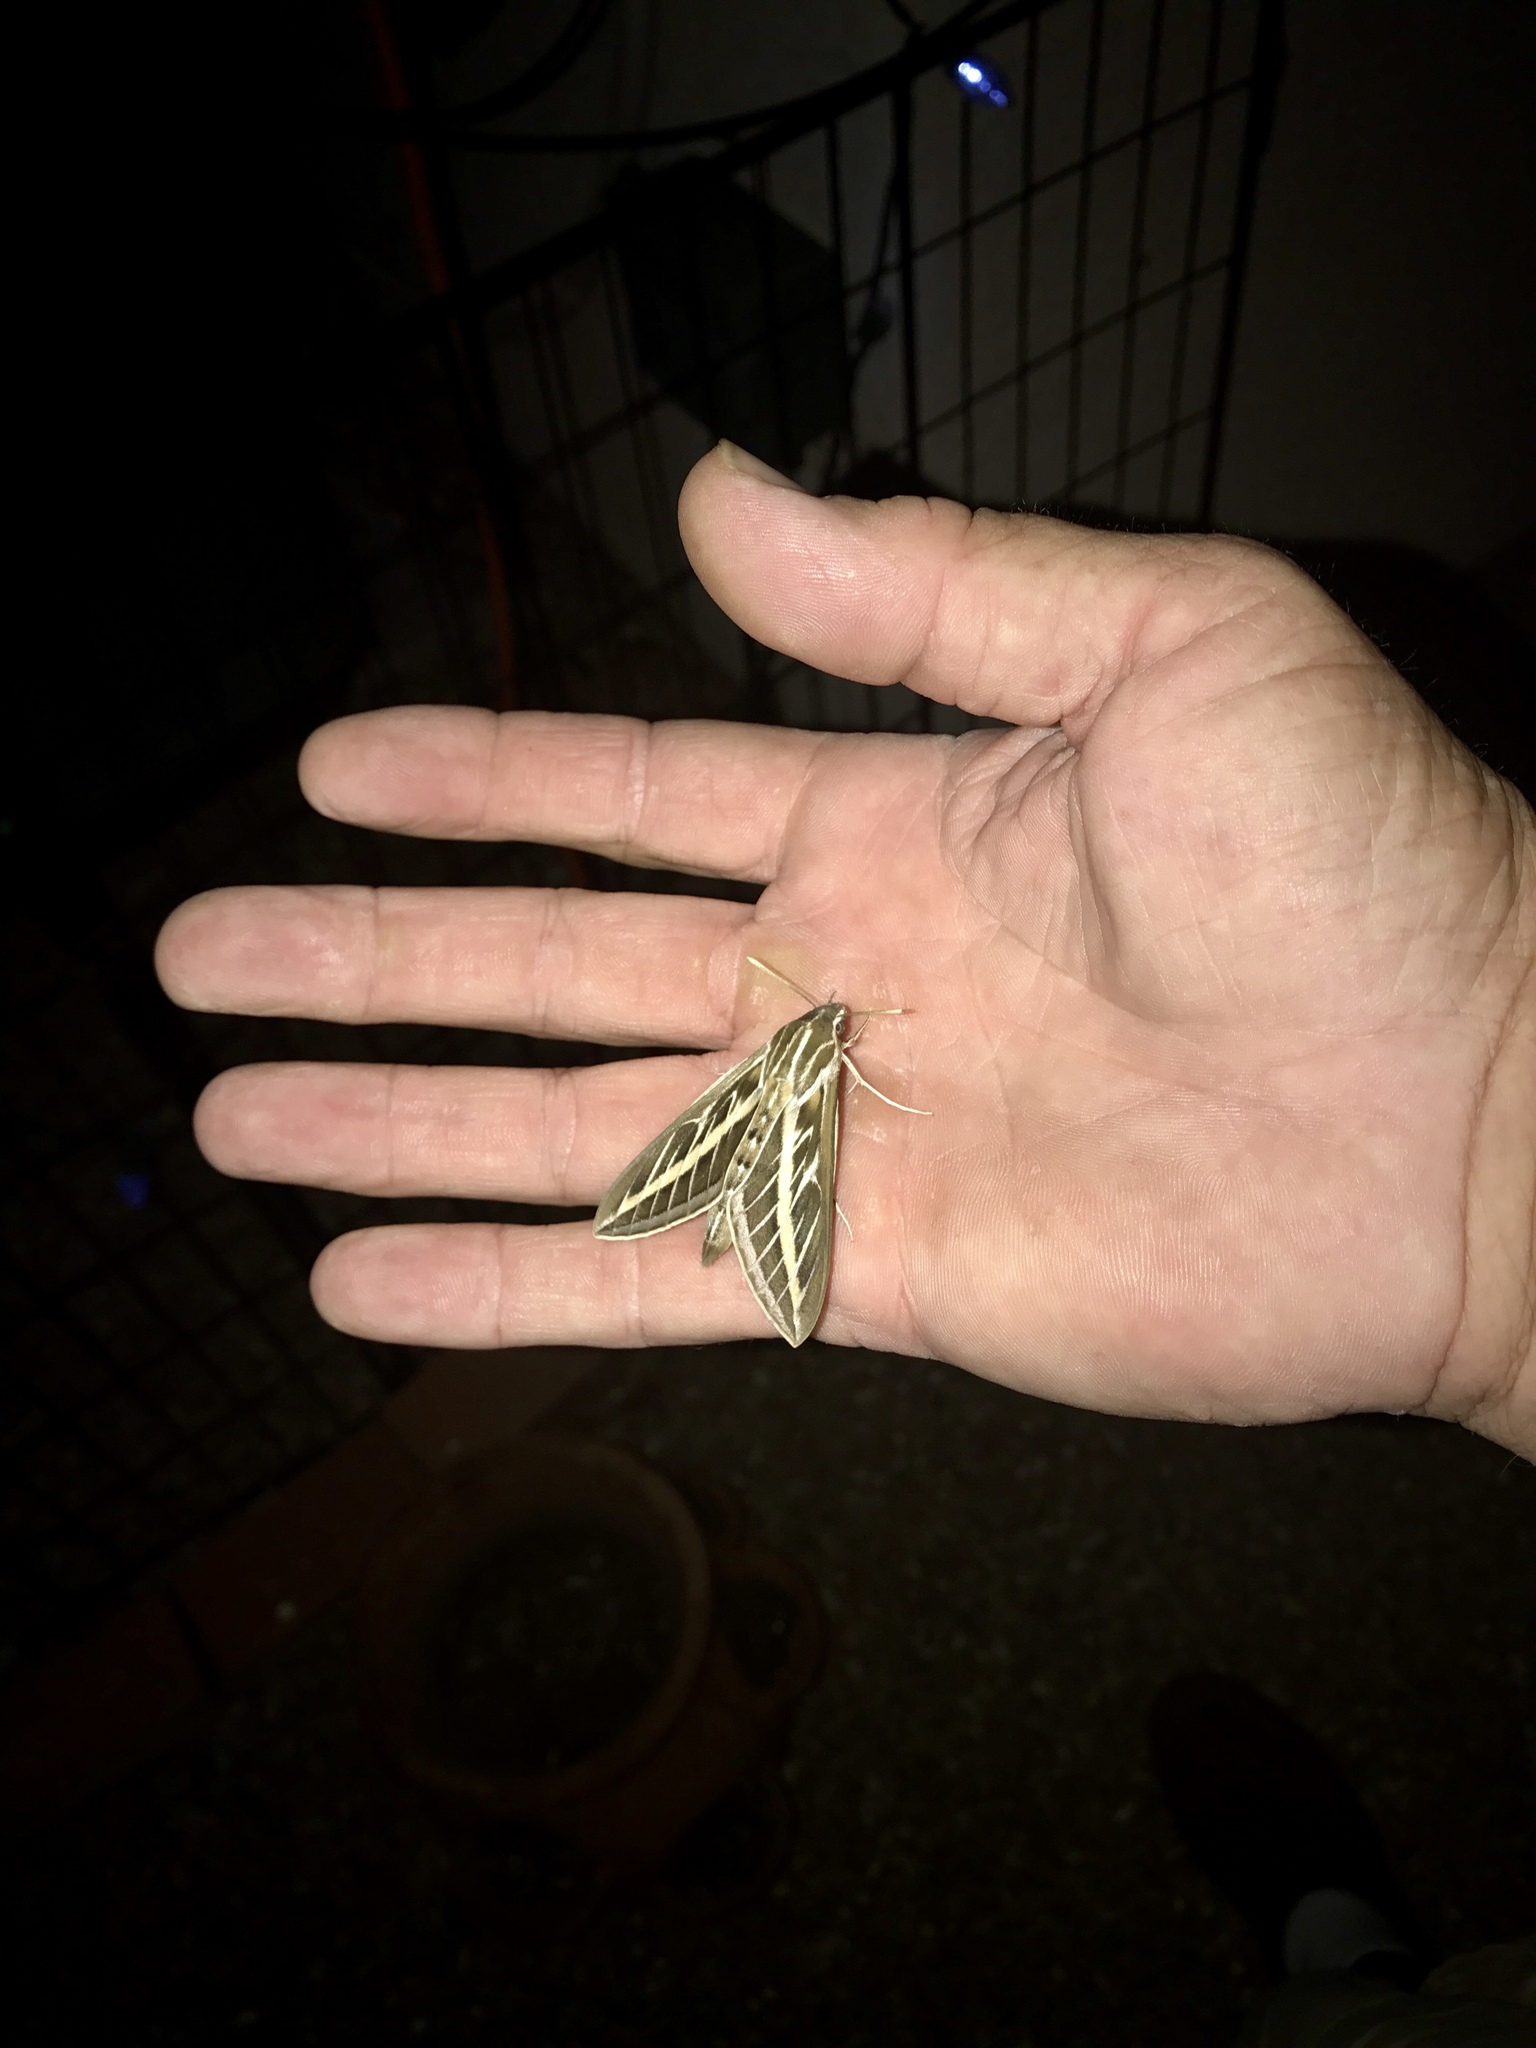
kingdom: Animalia
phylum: Arthropoda
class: Insecta
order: Lepidoptera
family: Sphingidae
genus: Hyles
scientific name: Hyles lineata
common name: White-lined sphinx
